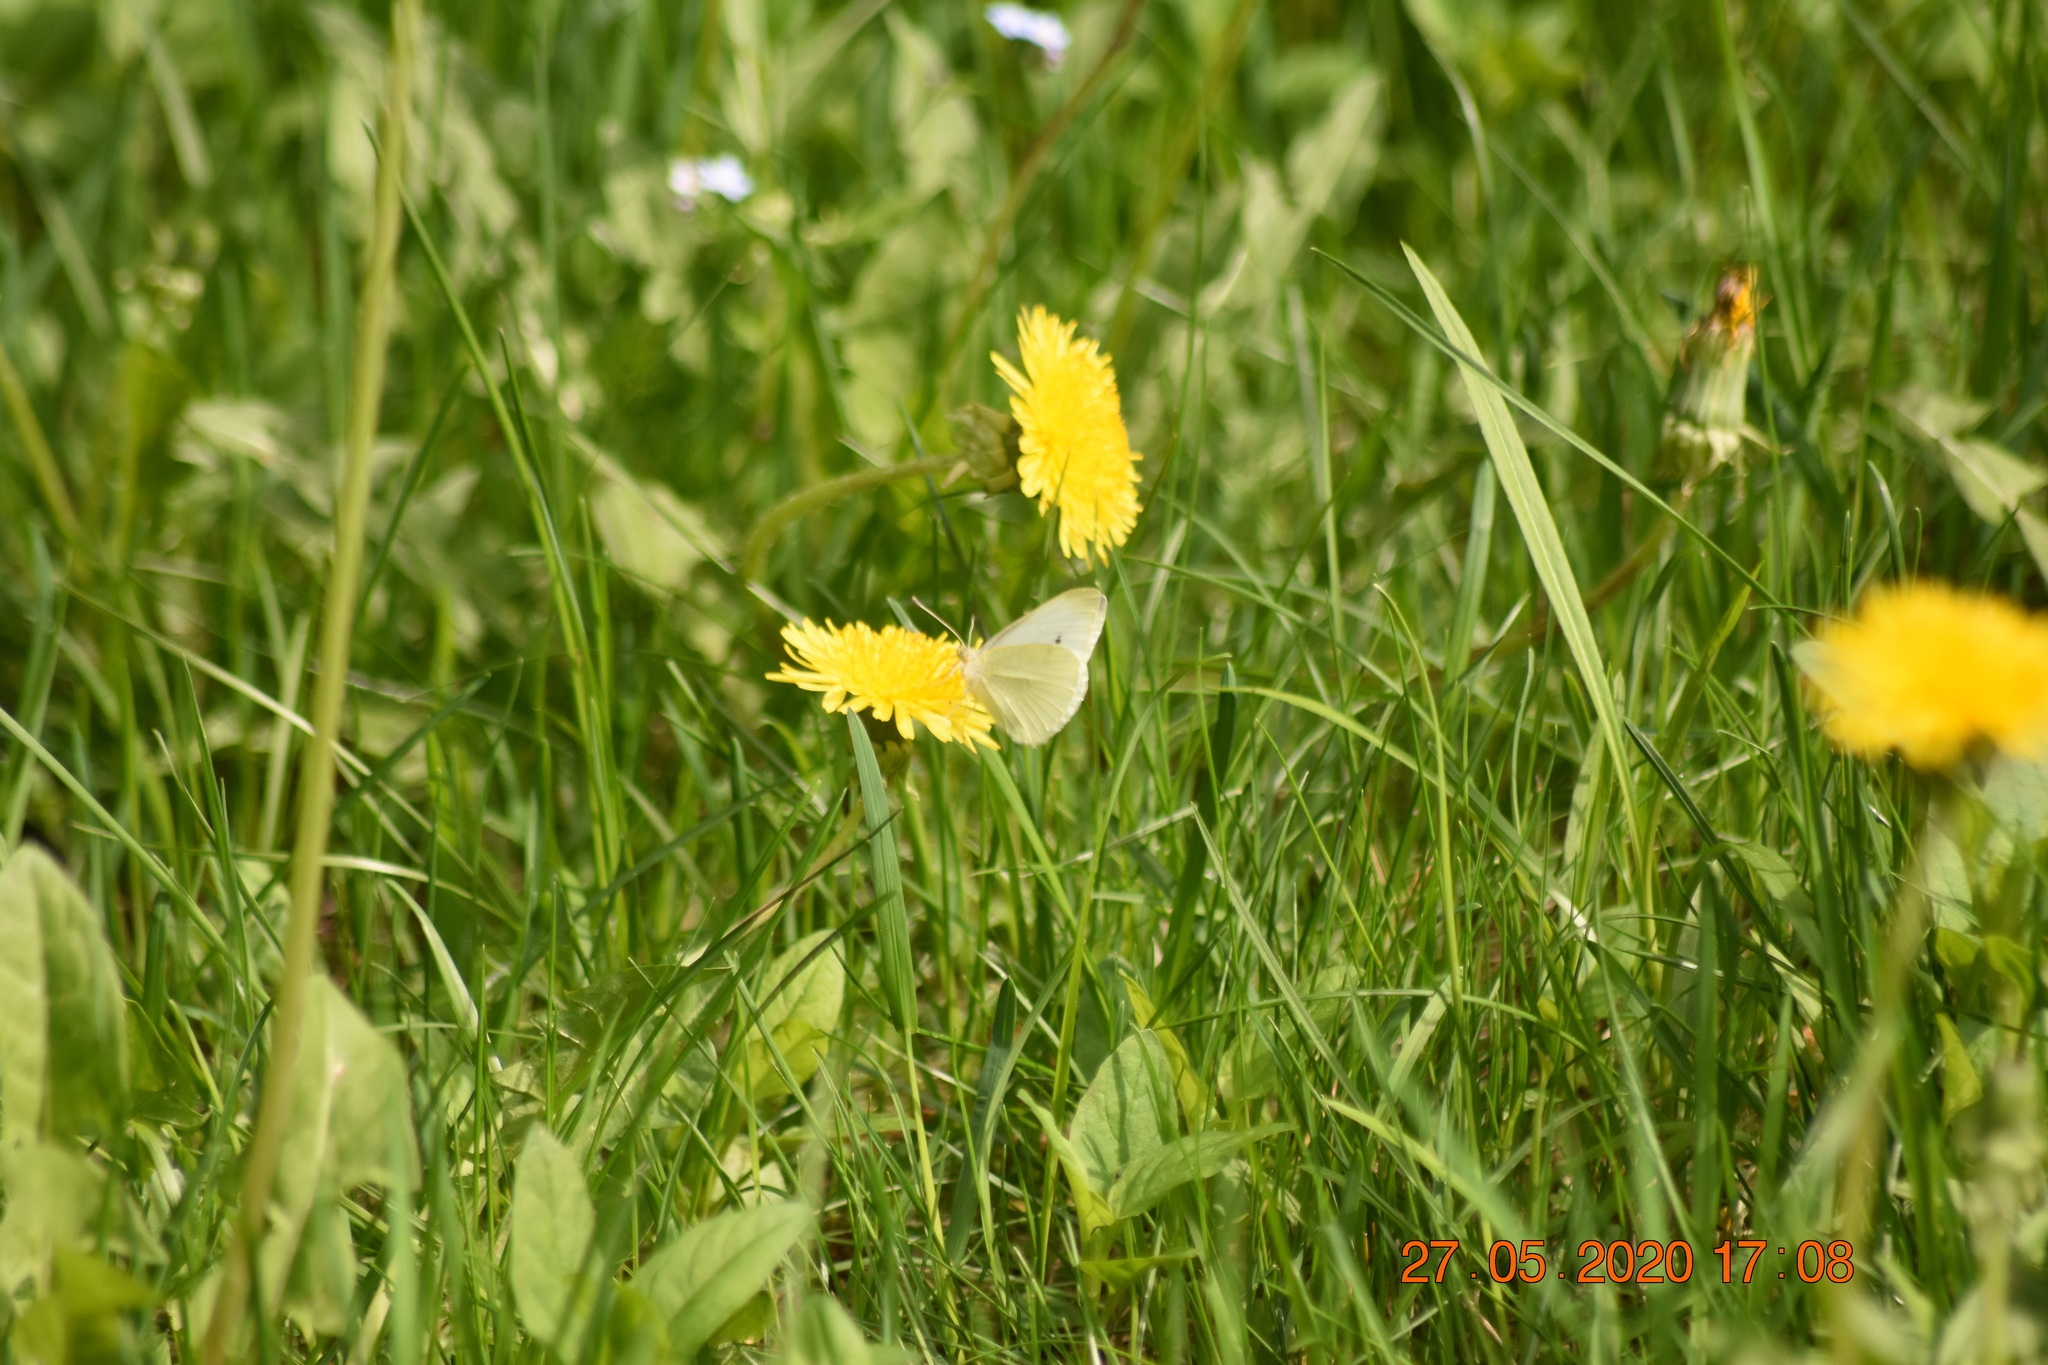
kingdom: Animalia
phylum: Arthropoda
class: Insecta
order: Lepidoptera
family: Pieridae
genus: Pieris
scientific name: Pieris rapae
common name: Small white
